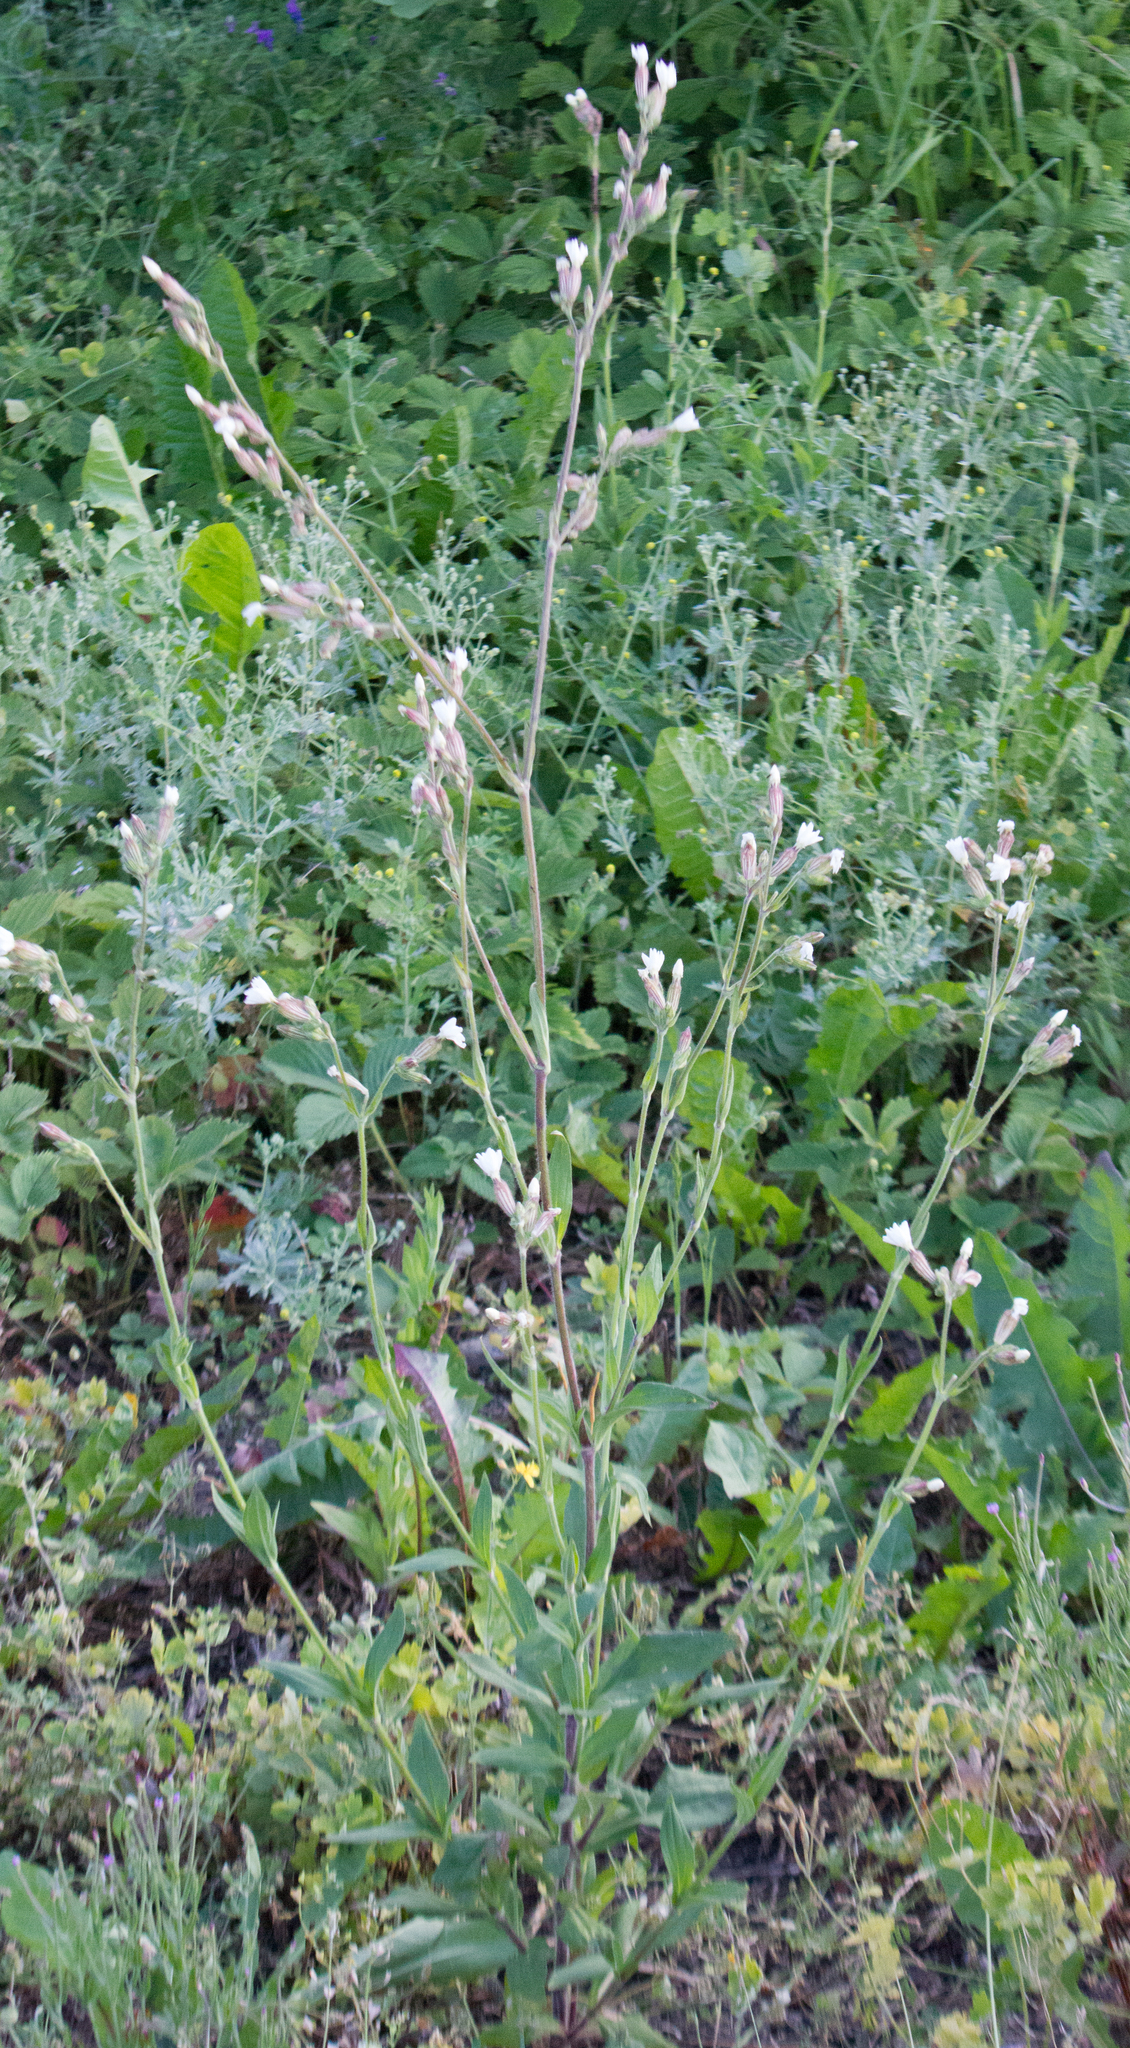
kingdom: Plantae
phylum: Tracheophyta
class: Magnoliopsida
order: Caryophyllales
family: Caryophyllaceae
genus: Silene
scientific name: Silene latifolia
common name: White campion
